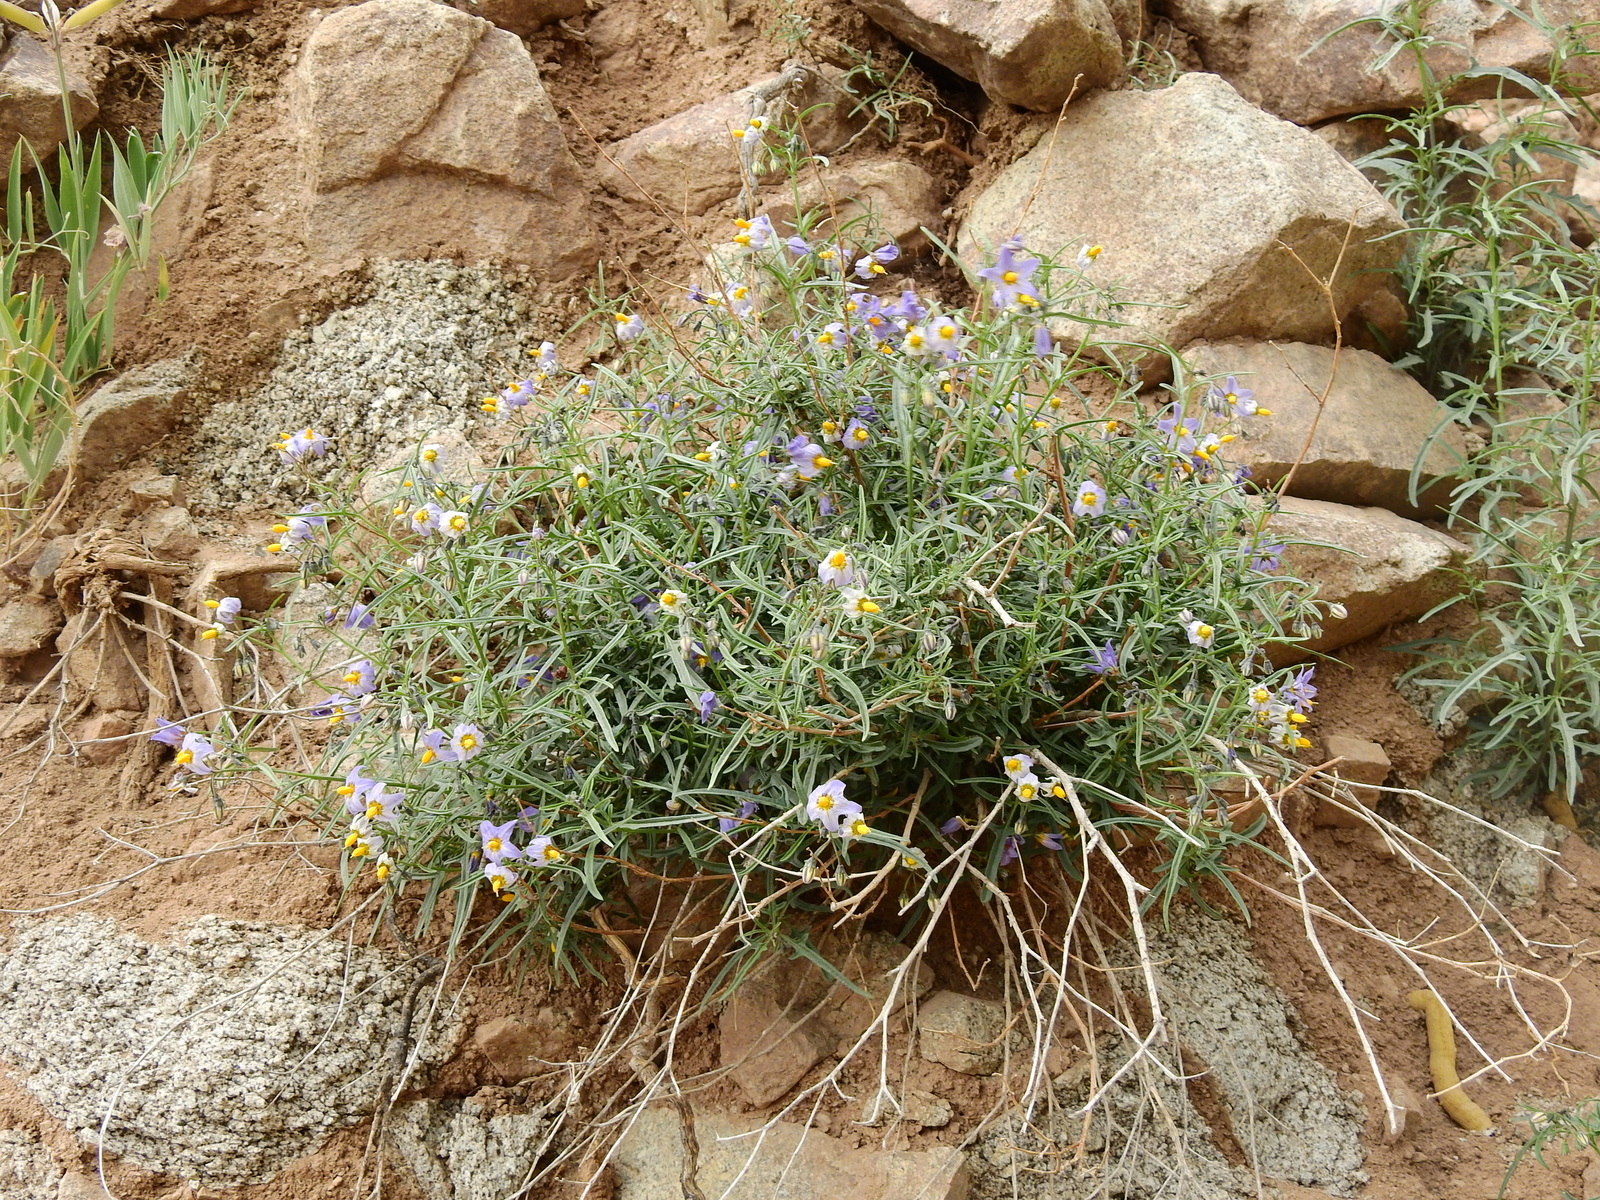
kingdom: Plantae
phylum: Tracheophyta
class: Magnoliopsida
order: Solanales
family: Solanaceae
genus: Solanum
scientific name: Solanum salicifolium
